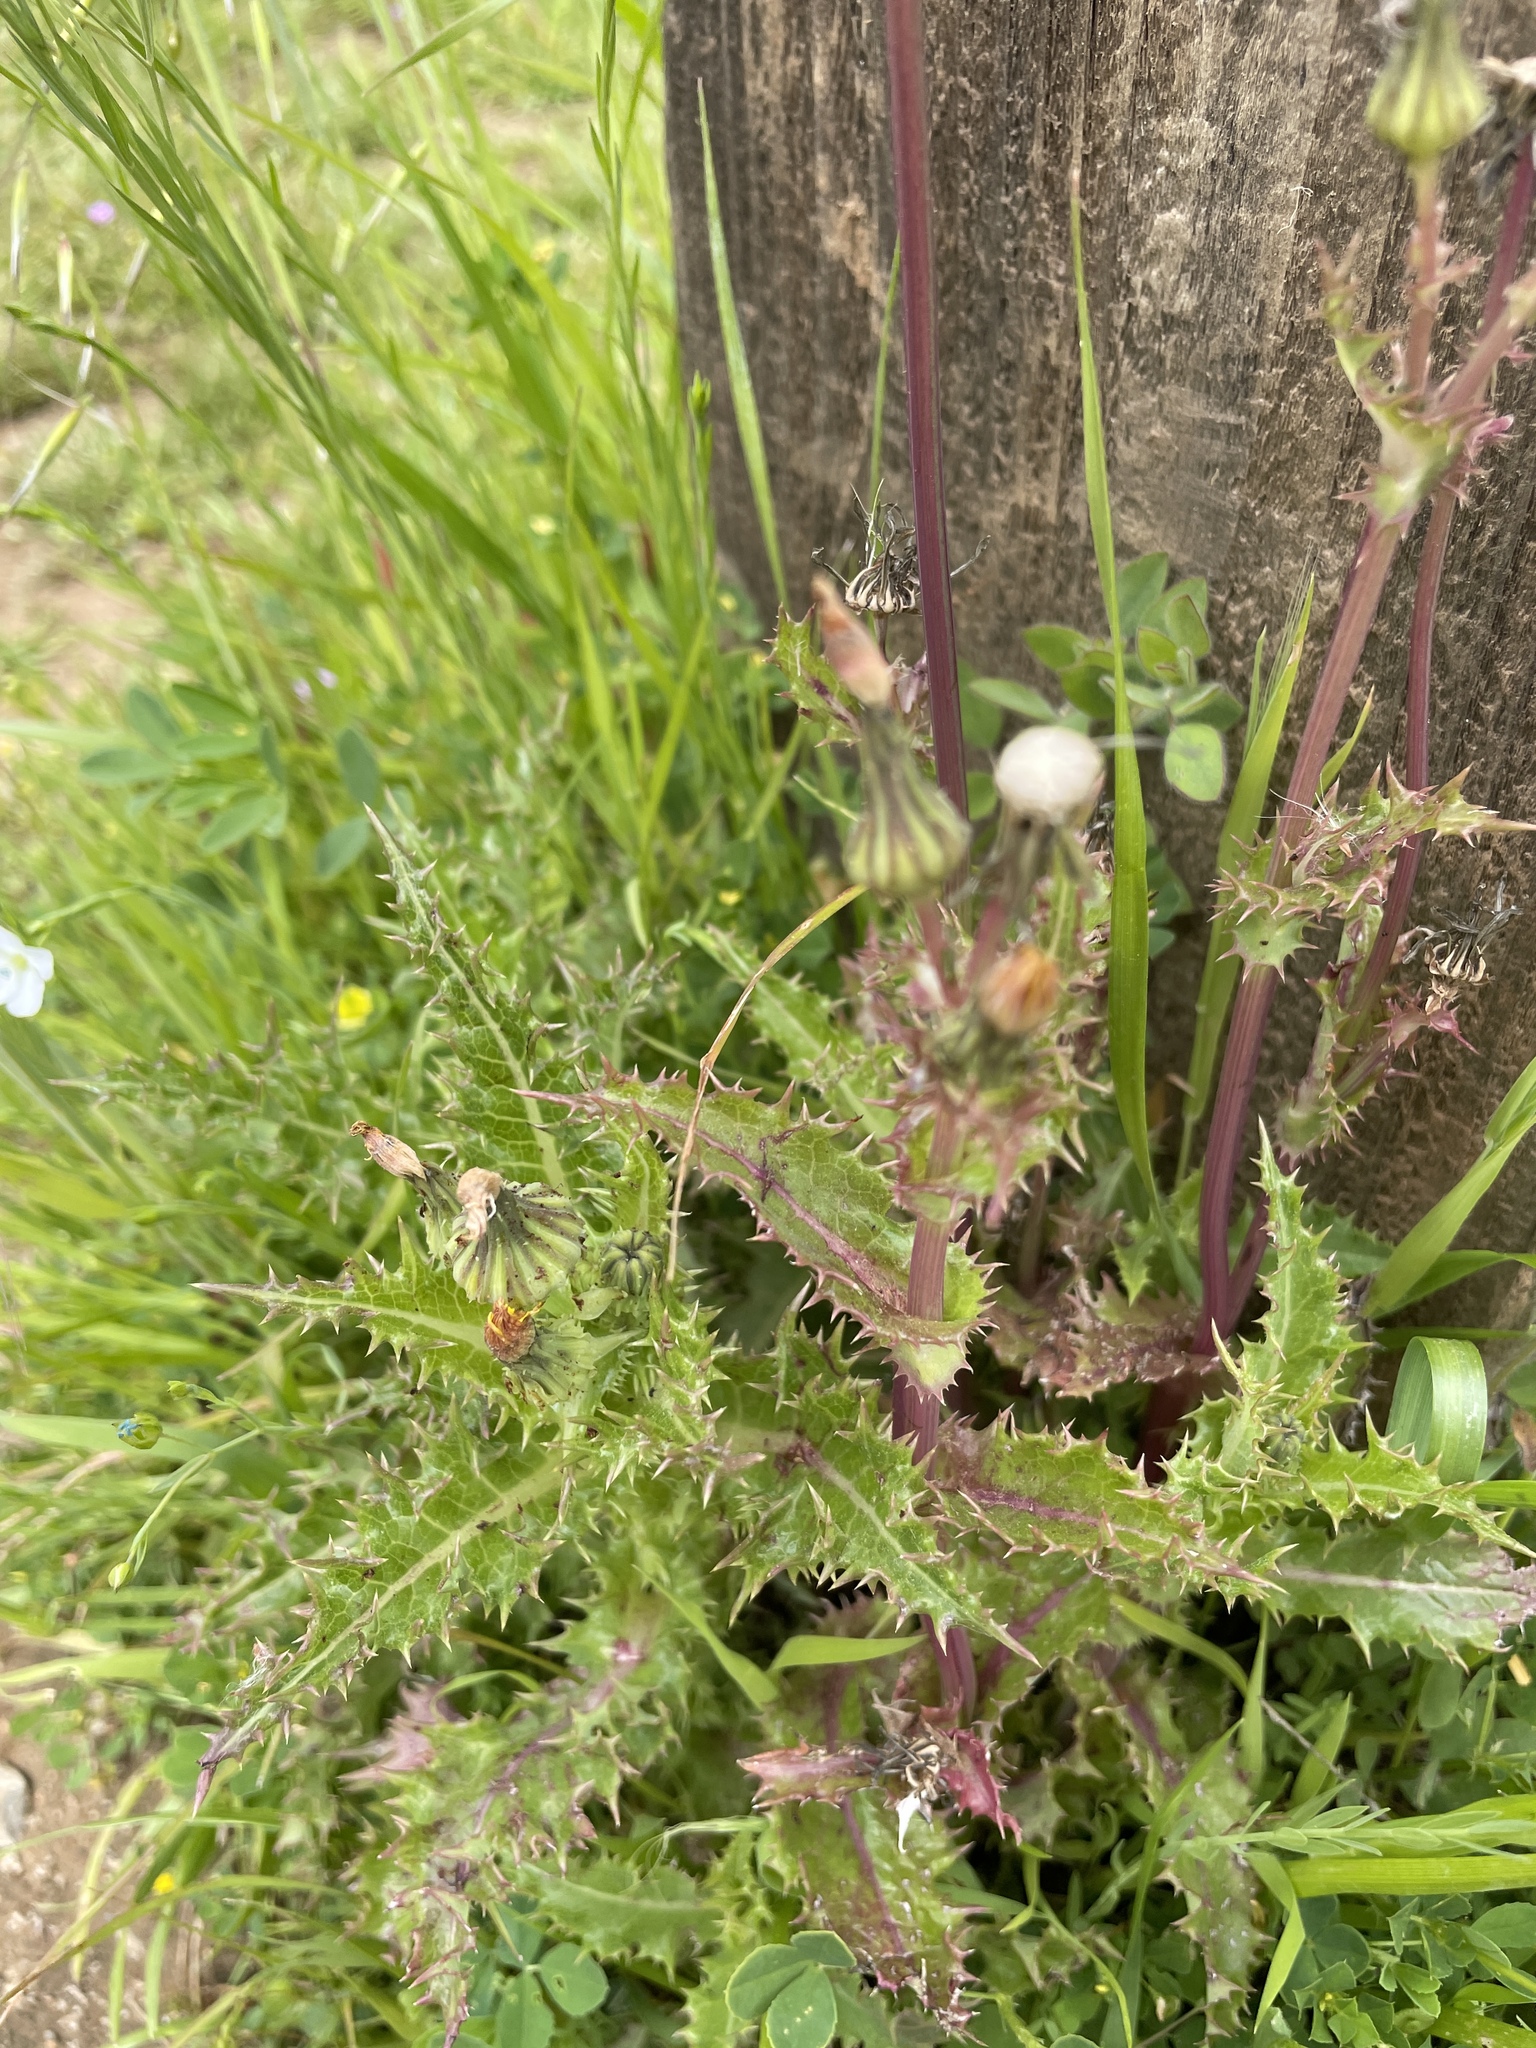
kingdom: Plantae
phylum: Tracheophyta
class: Magnoliopsida
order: Asterales
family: Asteraceae
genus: Sonchus
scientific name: Sonchus asper
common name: Prickly sow-thistle
